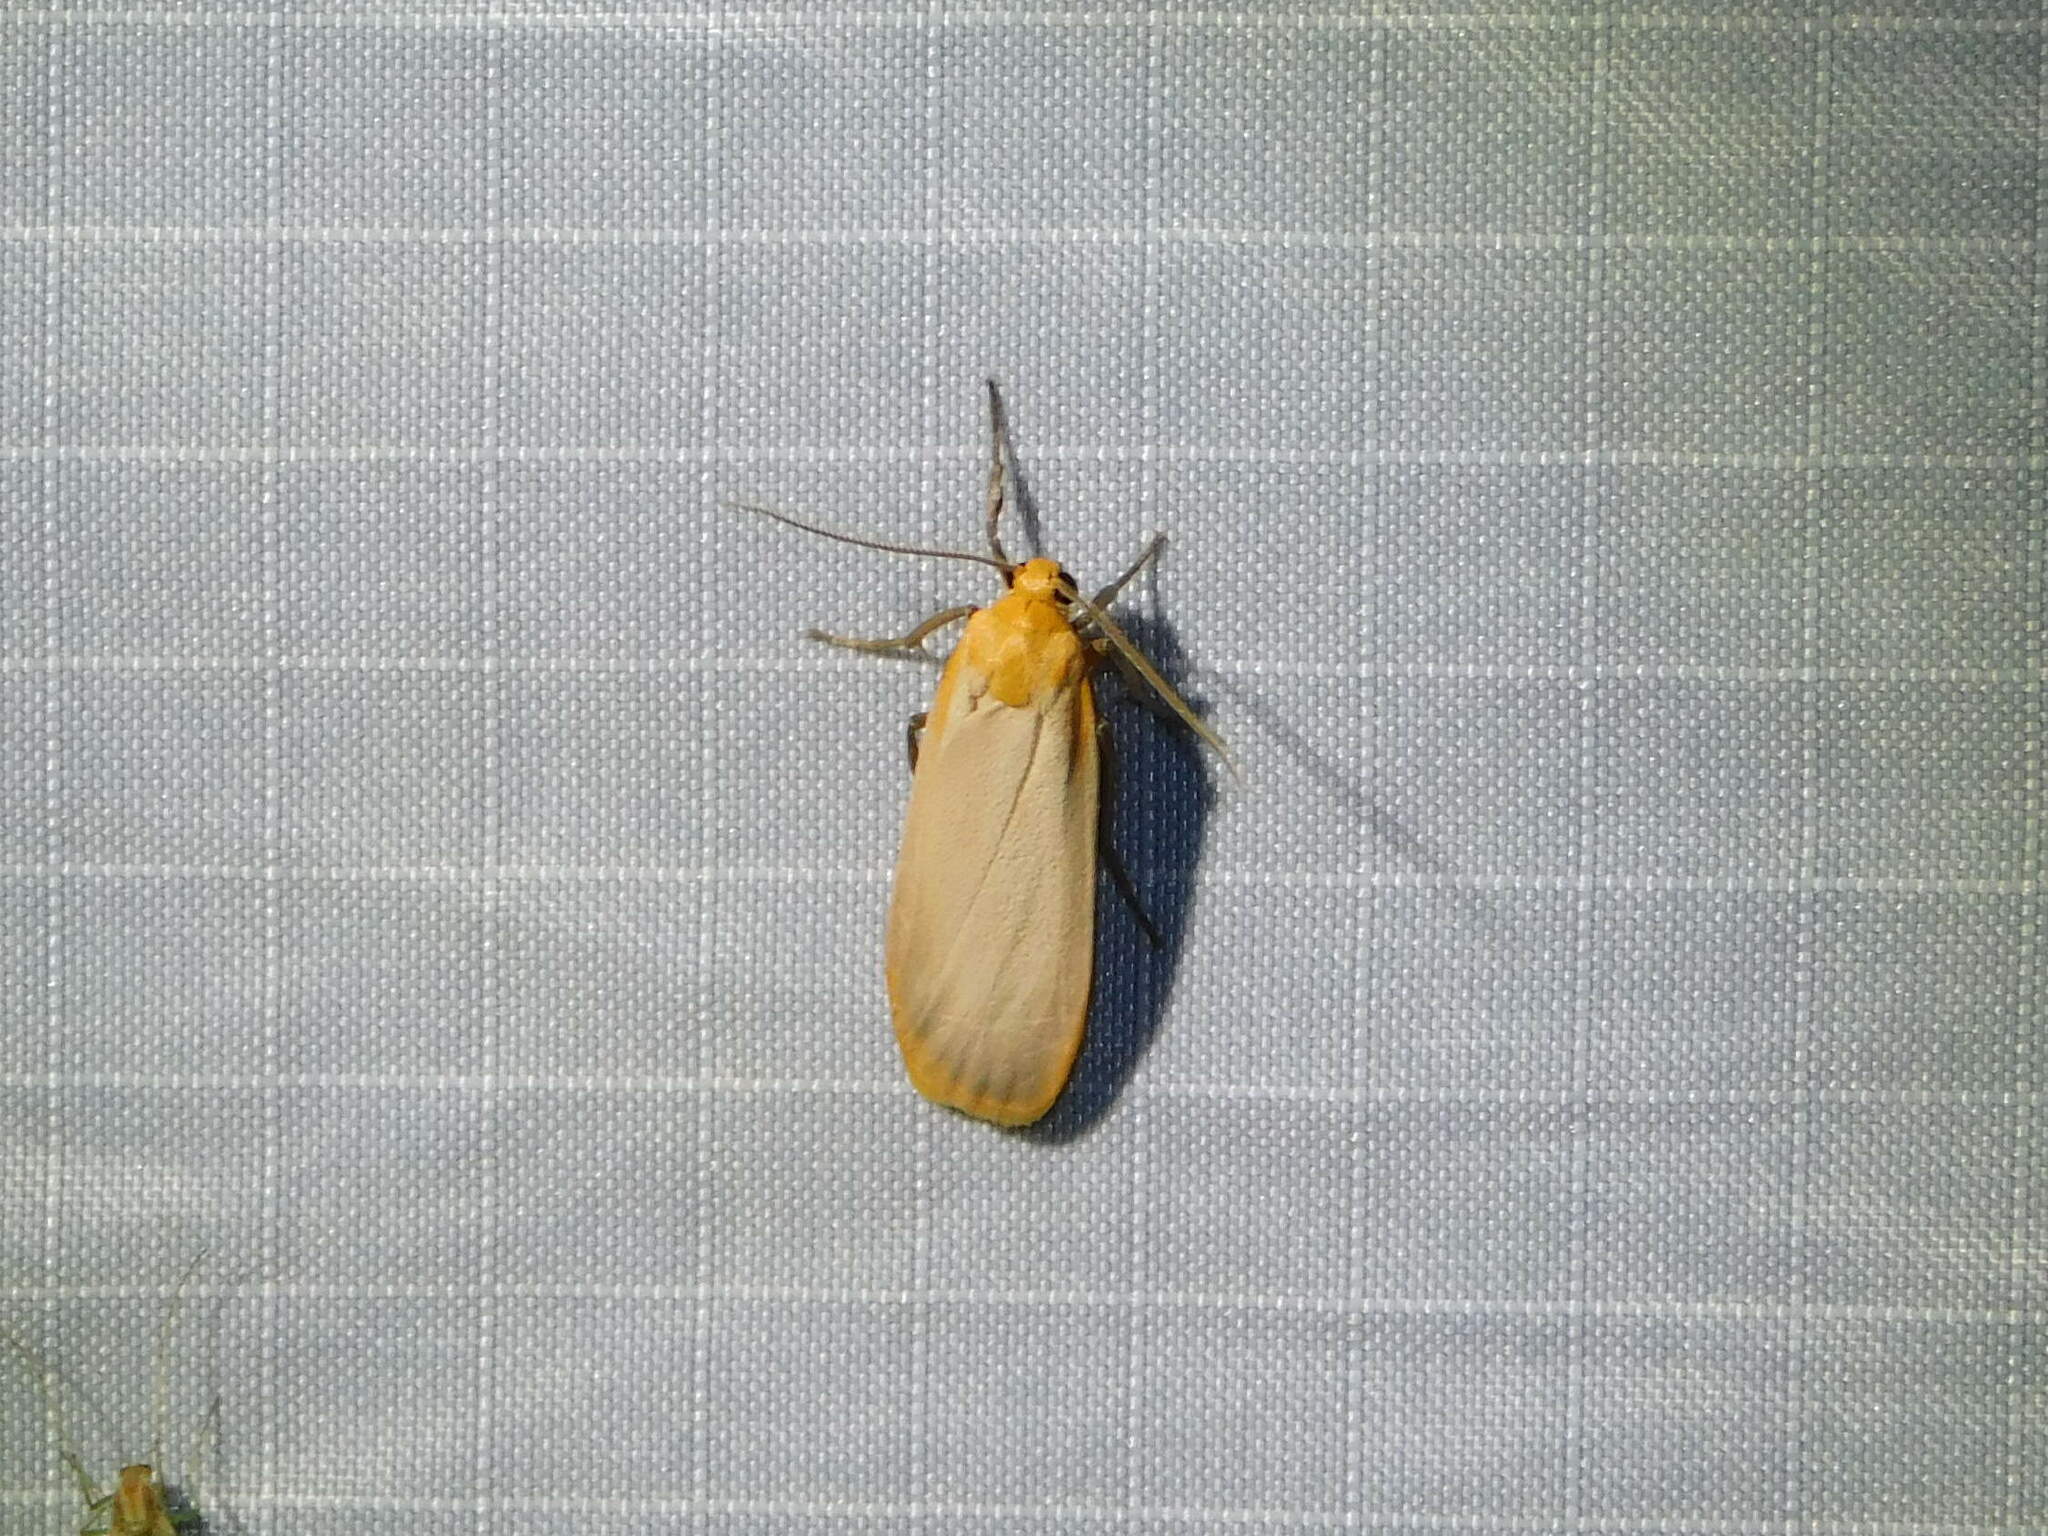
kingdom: Animalia
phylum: Arthropoda
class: Insecta
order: Lepidoptera
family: Erebidae
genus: Katha
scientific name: Katha depressa
